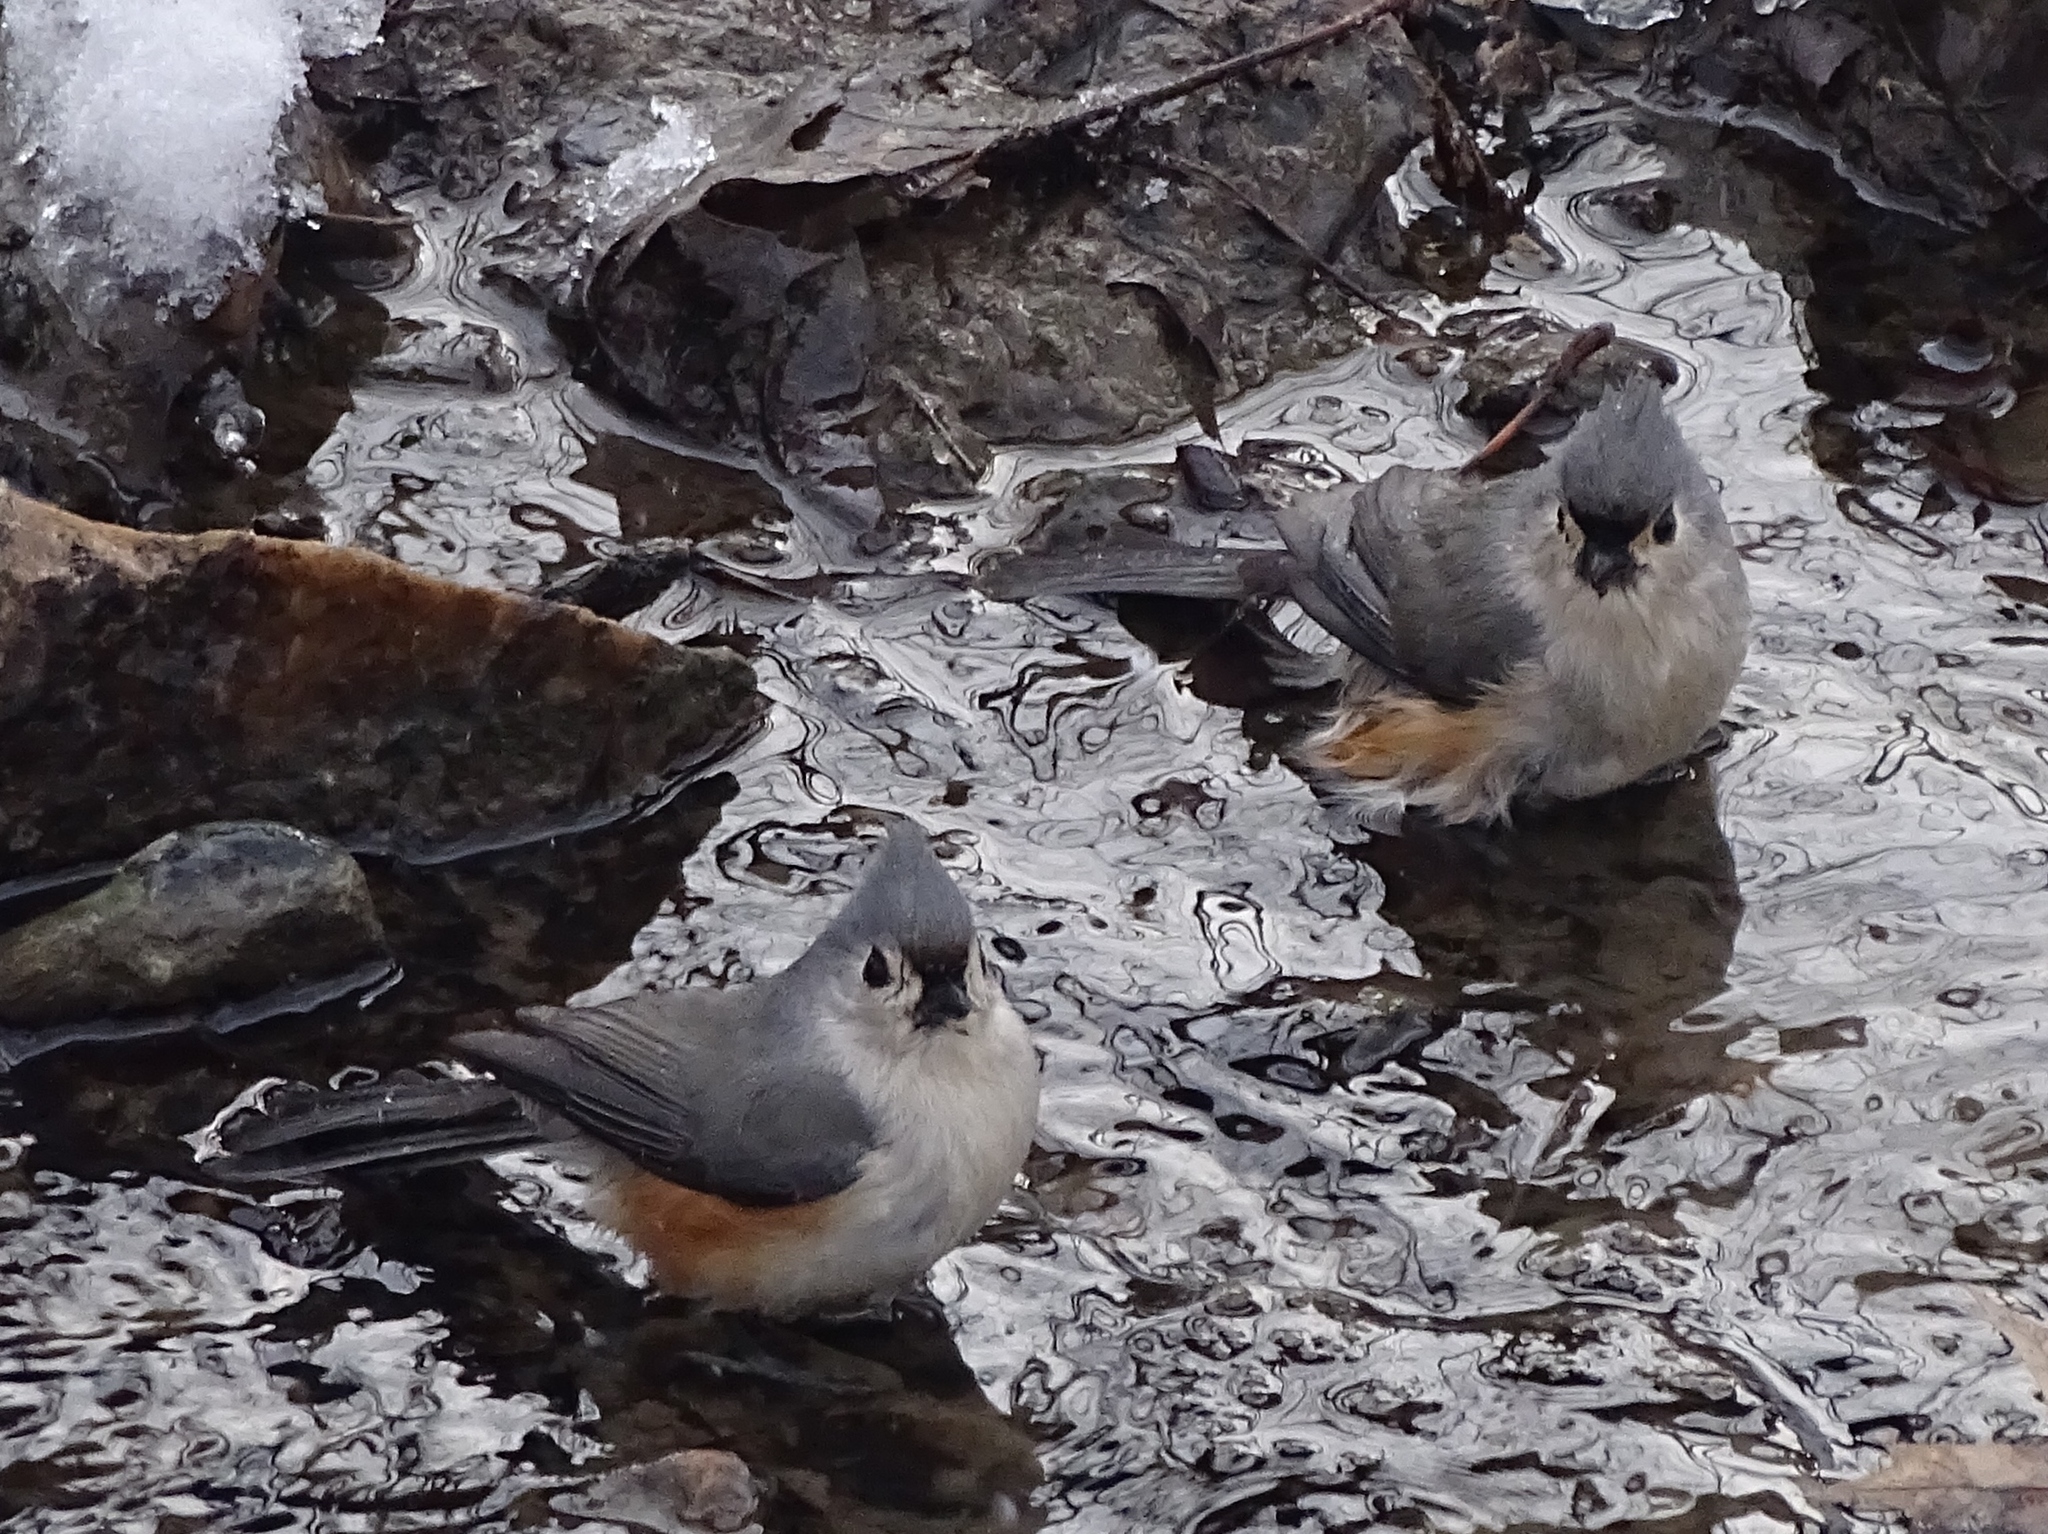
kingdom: Animalia
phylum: Chordata
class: Aves
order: Passeriformes
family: Paridae
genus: Baeolophus
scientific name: Baeolophus bicolor
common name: Tufted titmouse
